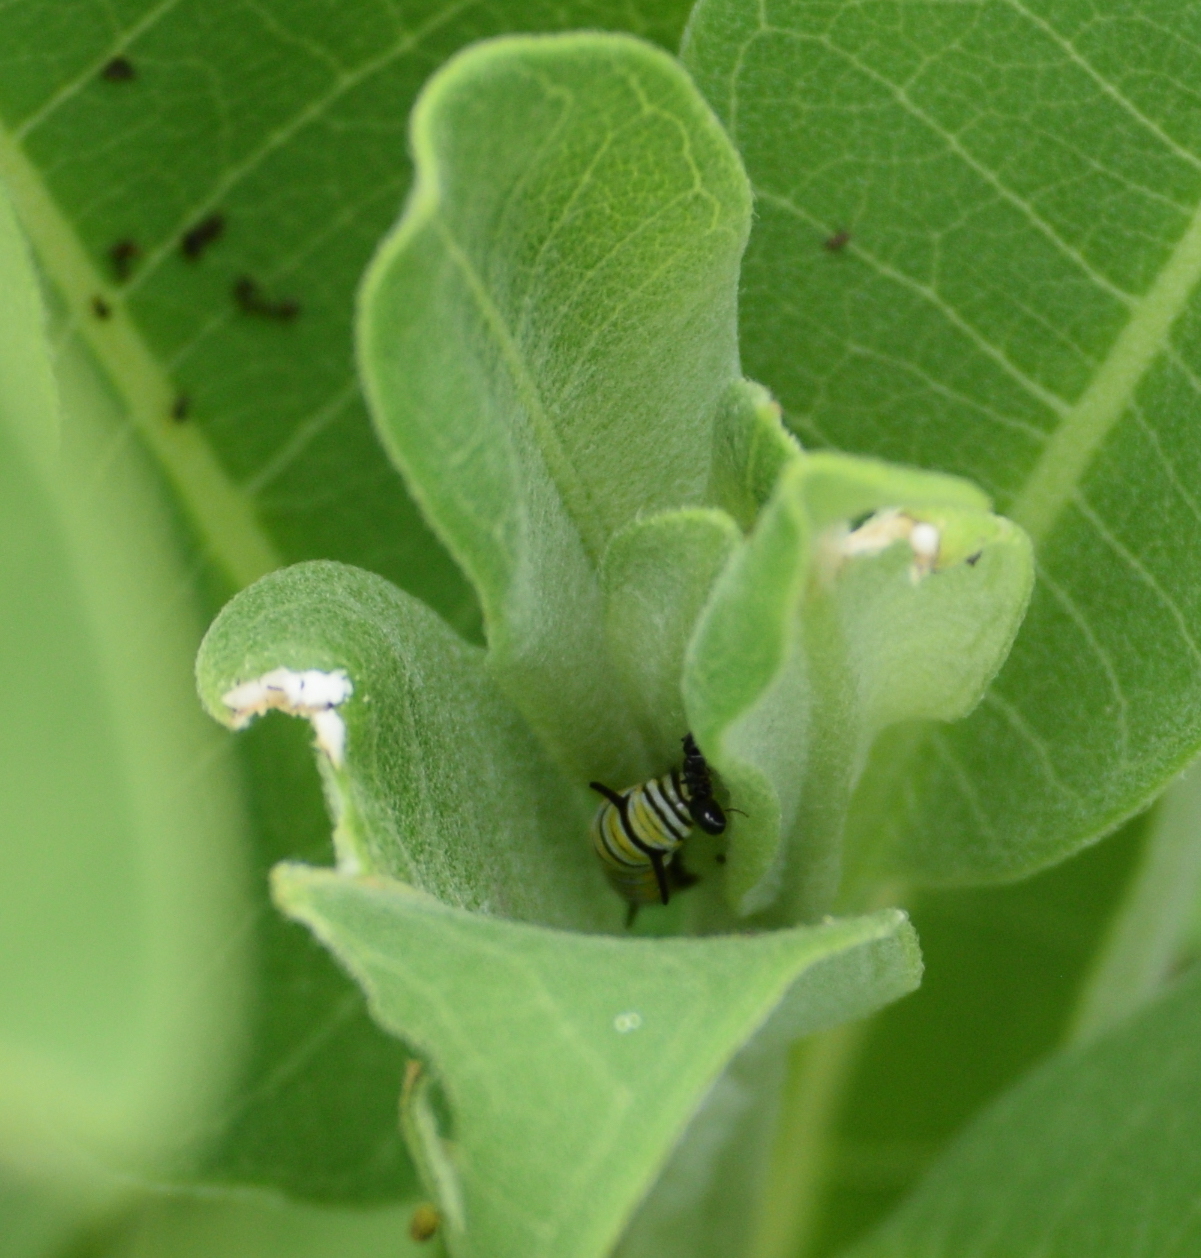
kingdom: Animalia
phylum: Arthropoda
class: Insecta
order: Lepidoptera
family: Nymphalidae
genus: Danaus
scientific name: Danaus plexippus
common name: Monarch
